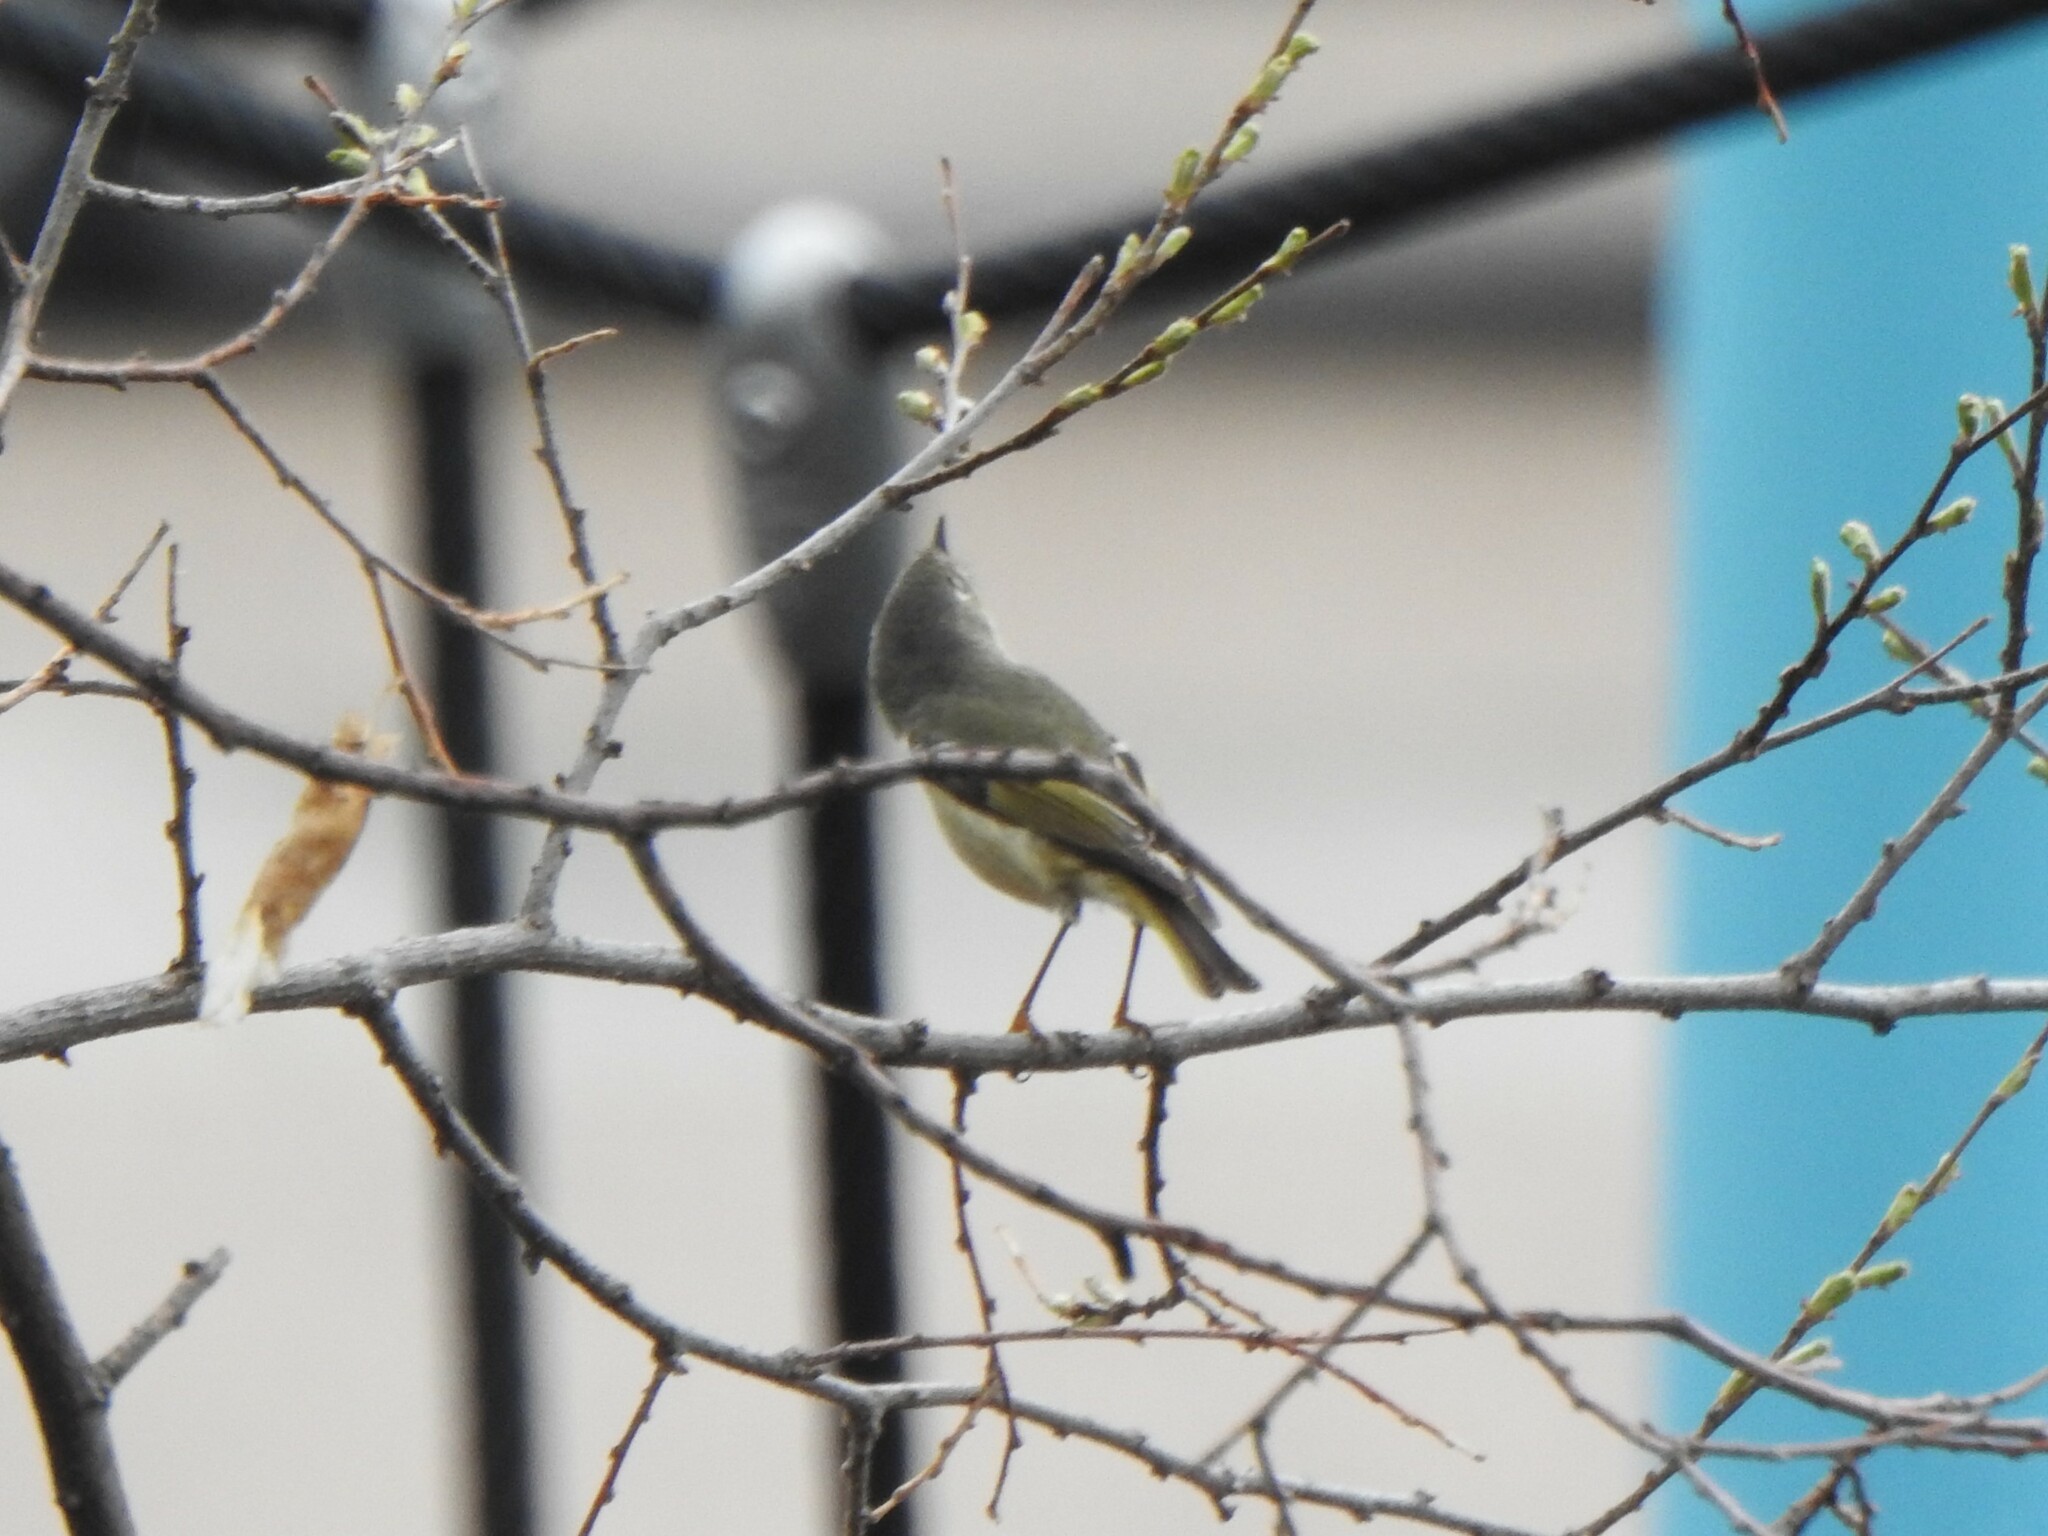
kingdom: Animalia
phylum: Chordata
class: Aves
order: Passeriformes
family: Regulidae
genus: Regulus
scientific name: Regulus calendula
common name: Ruby-crowned kinglet
